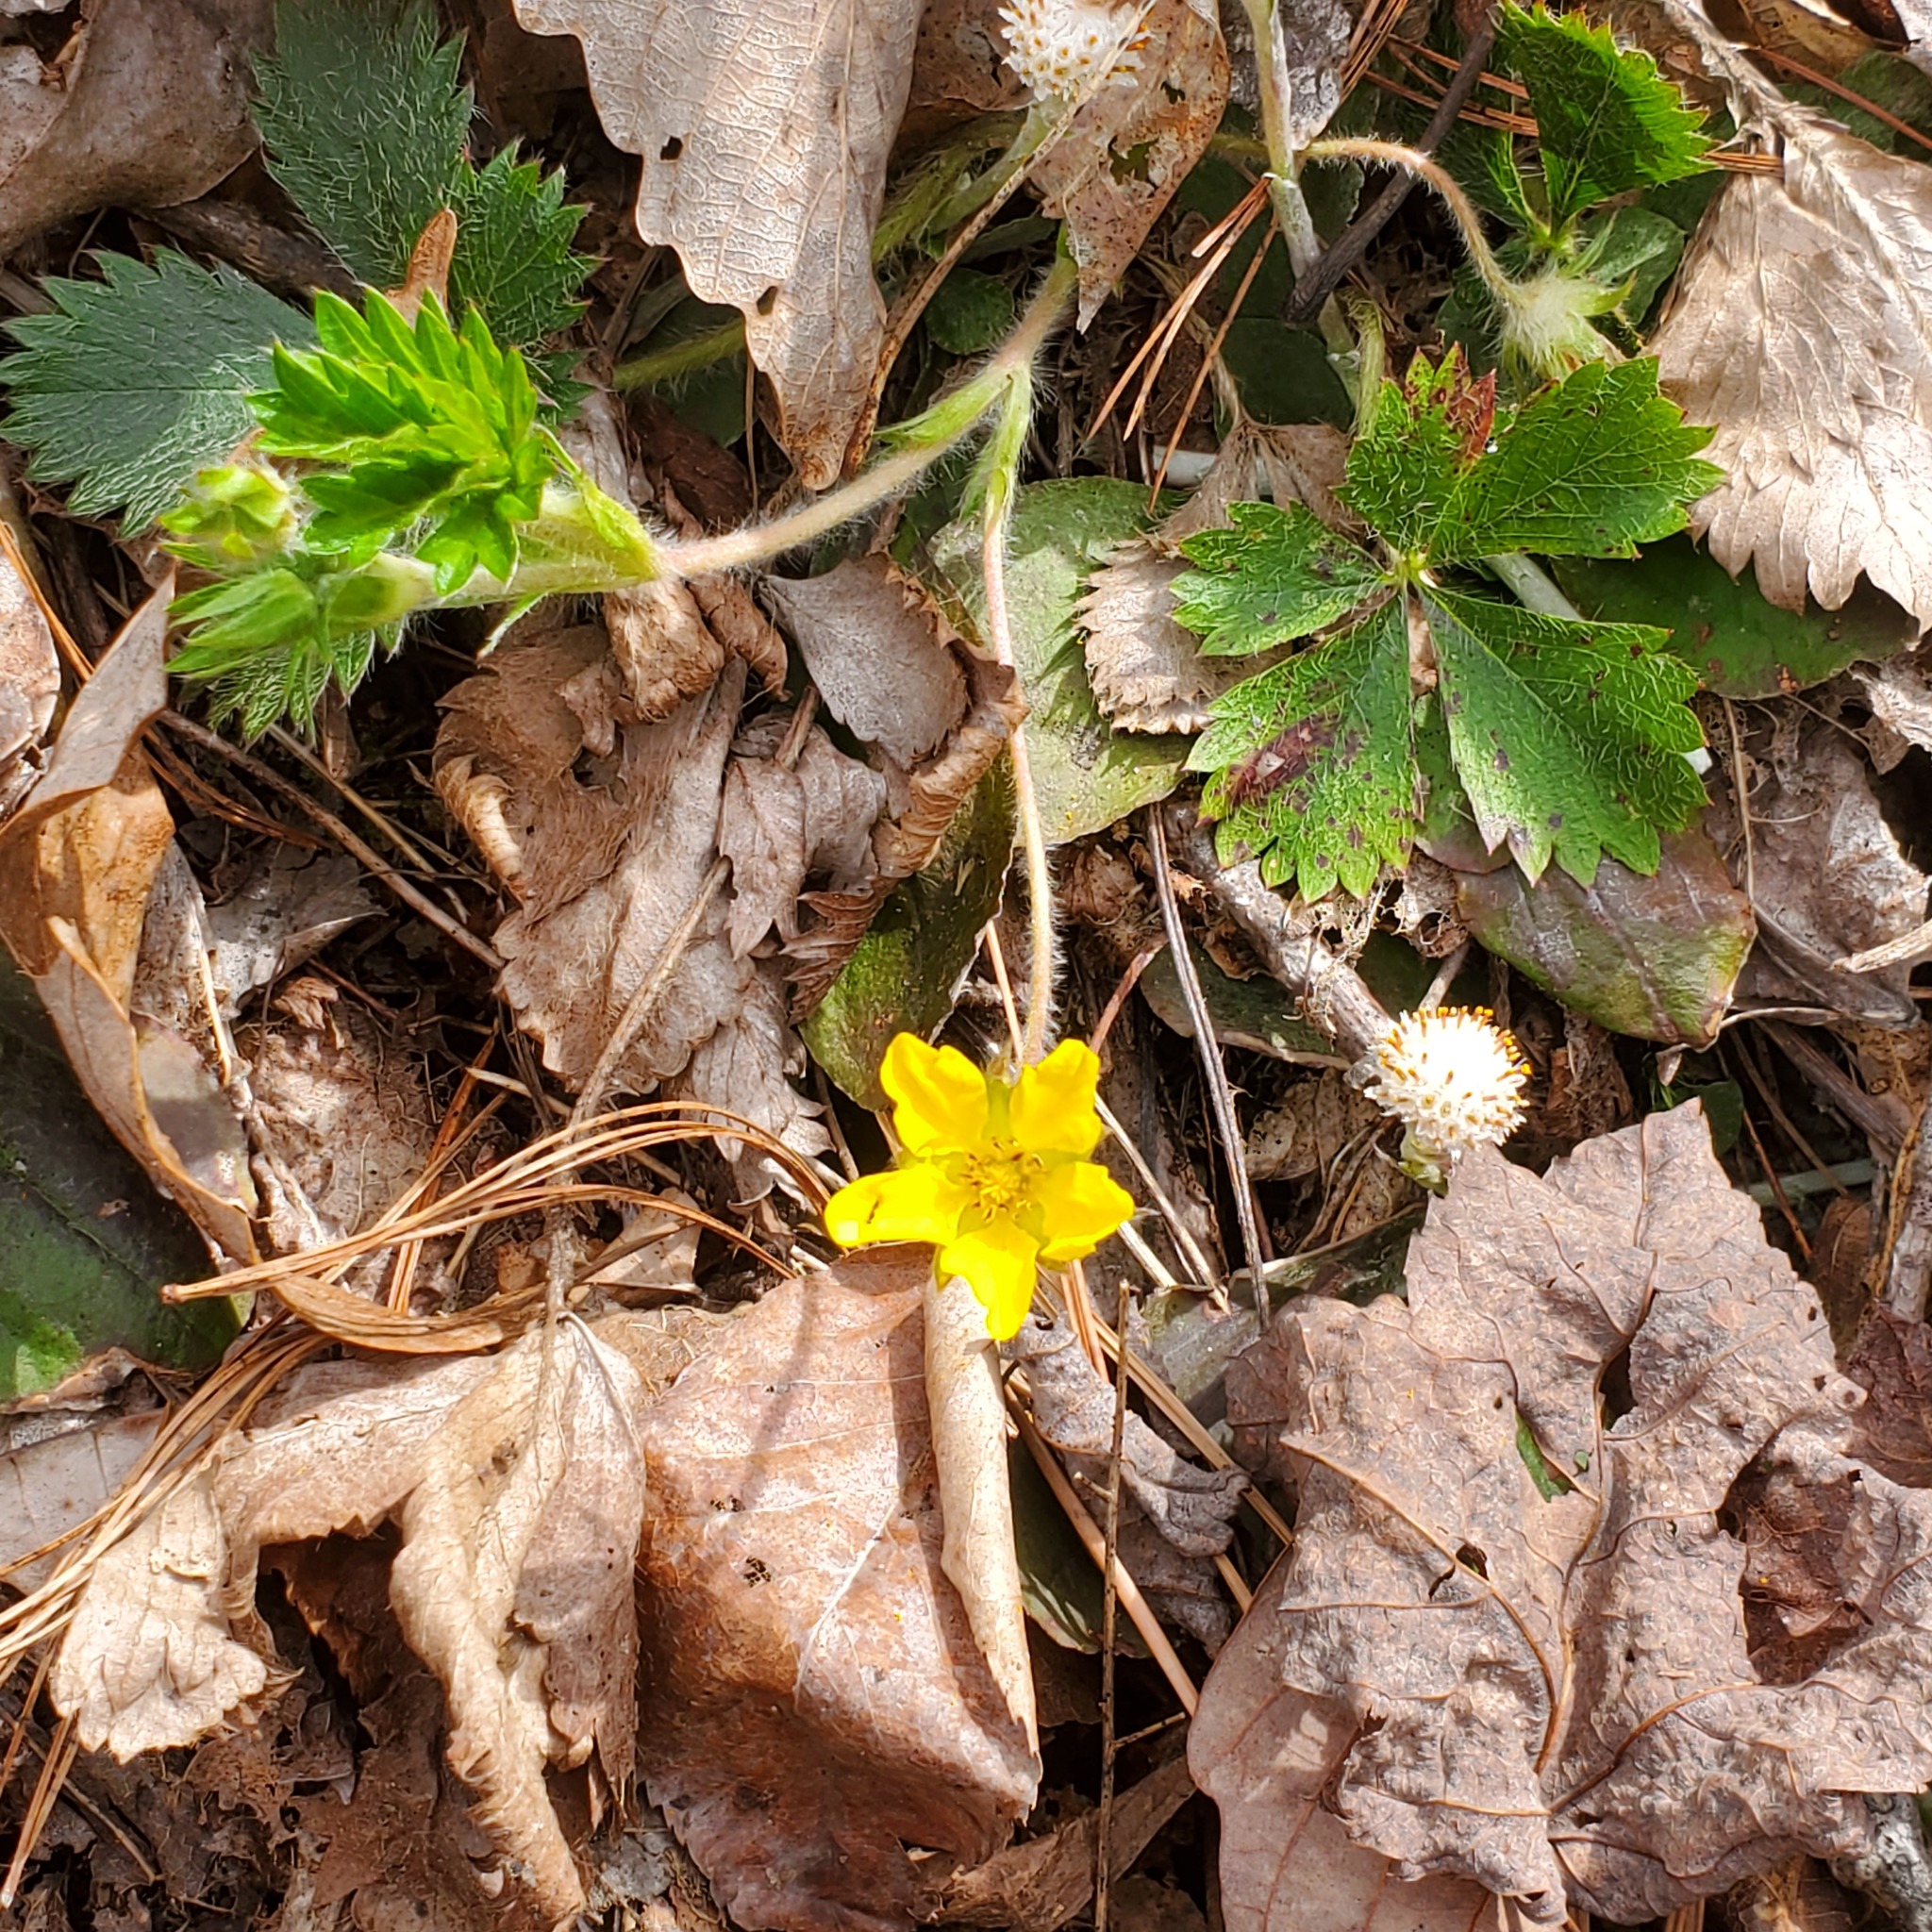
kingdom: Plantae
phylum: Tracheophyta
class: Magnoliopsida
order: Rosales
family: Rosaceae
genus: Potentilla
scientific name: Potentilla canadensis
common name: Canada cinquefoil
